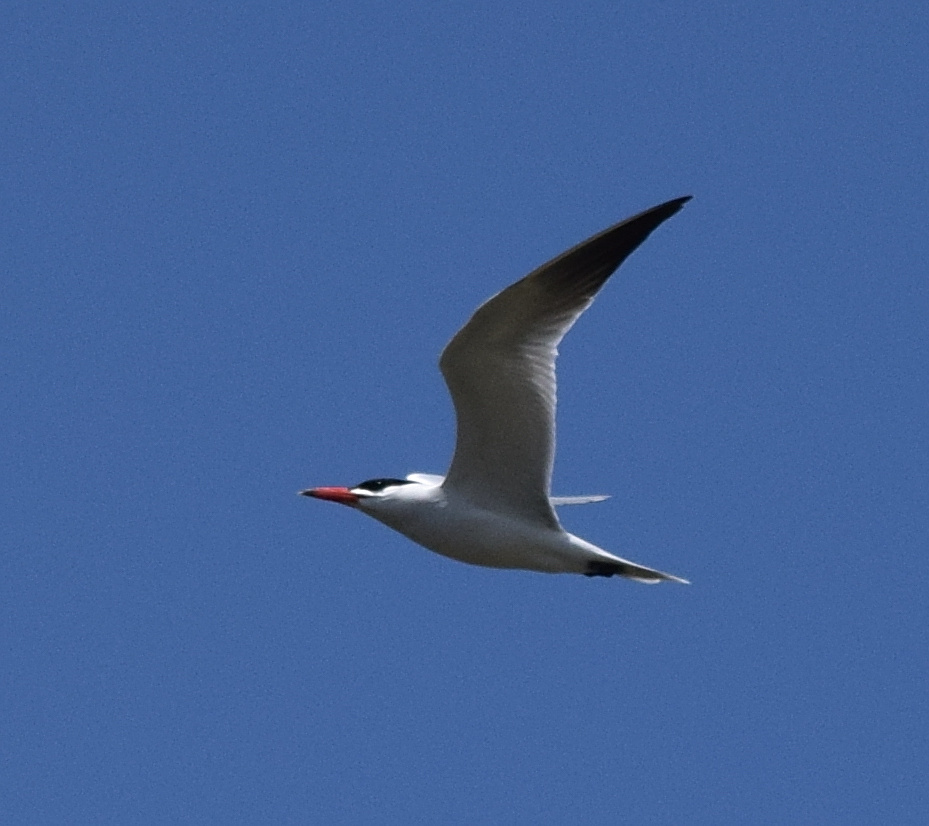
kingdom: Animalia
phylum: Chordata
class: Aves
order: Charadriiformes
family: Laridae
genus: Hydroprogne
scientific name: Hydroprogne caspia
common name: Caspian tern
